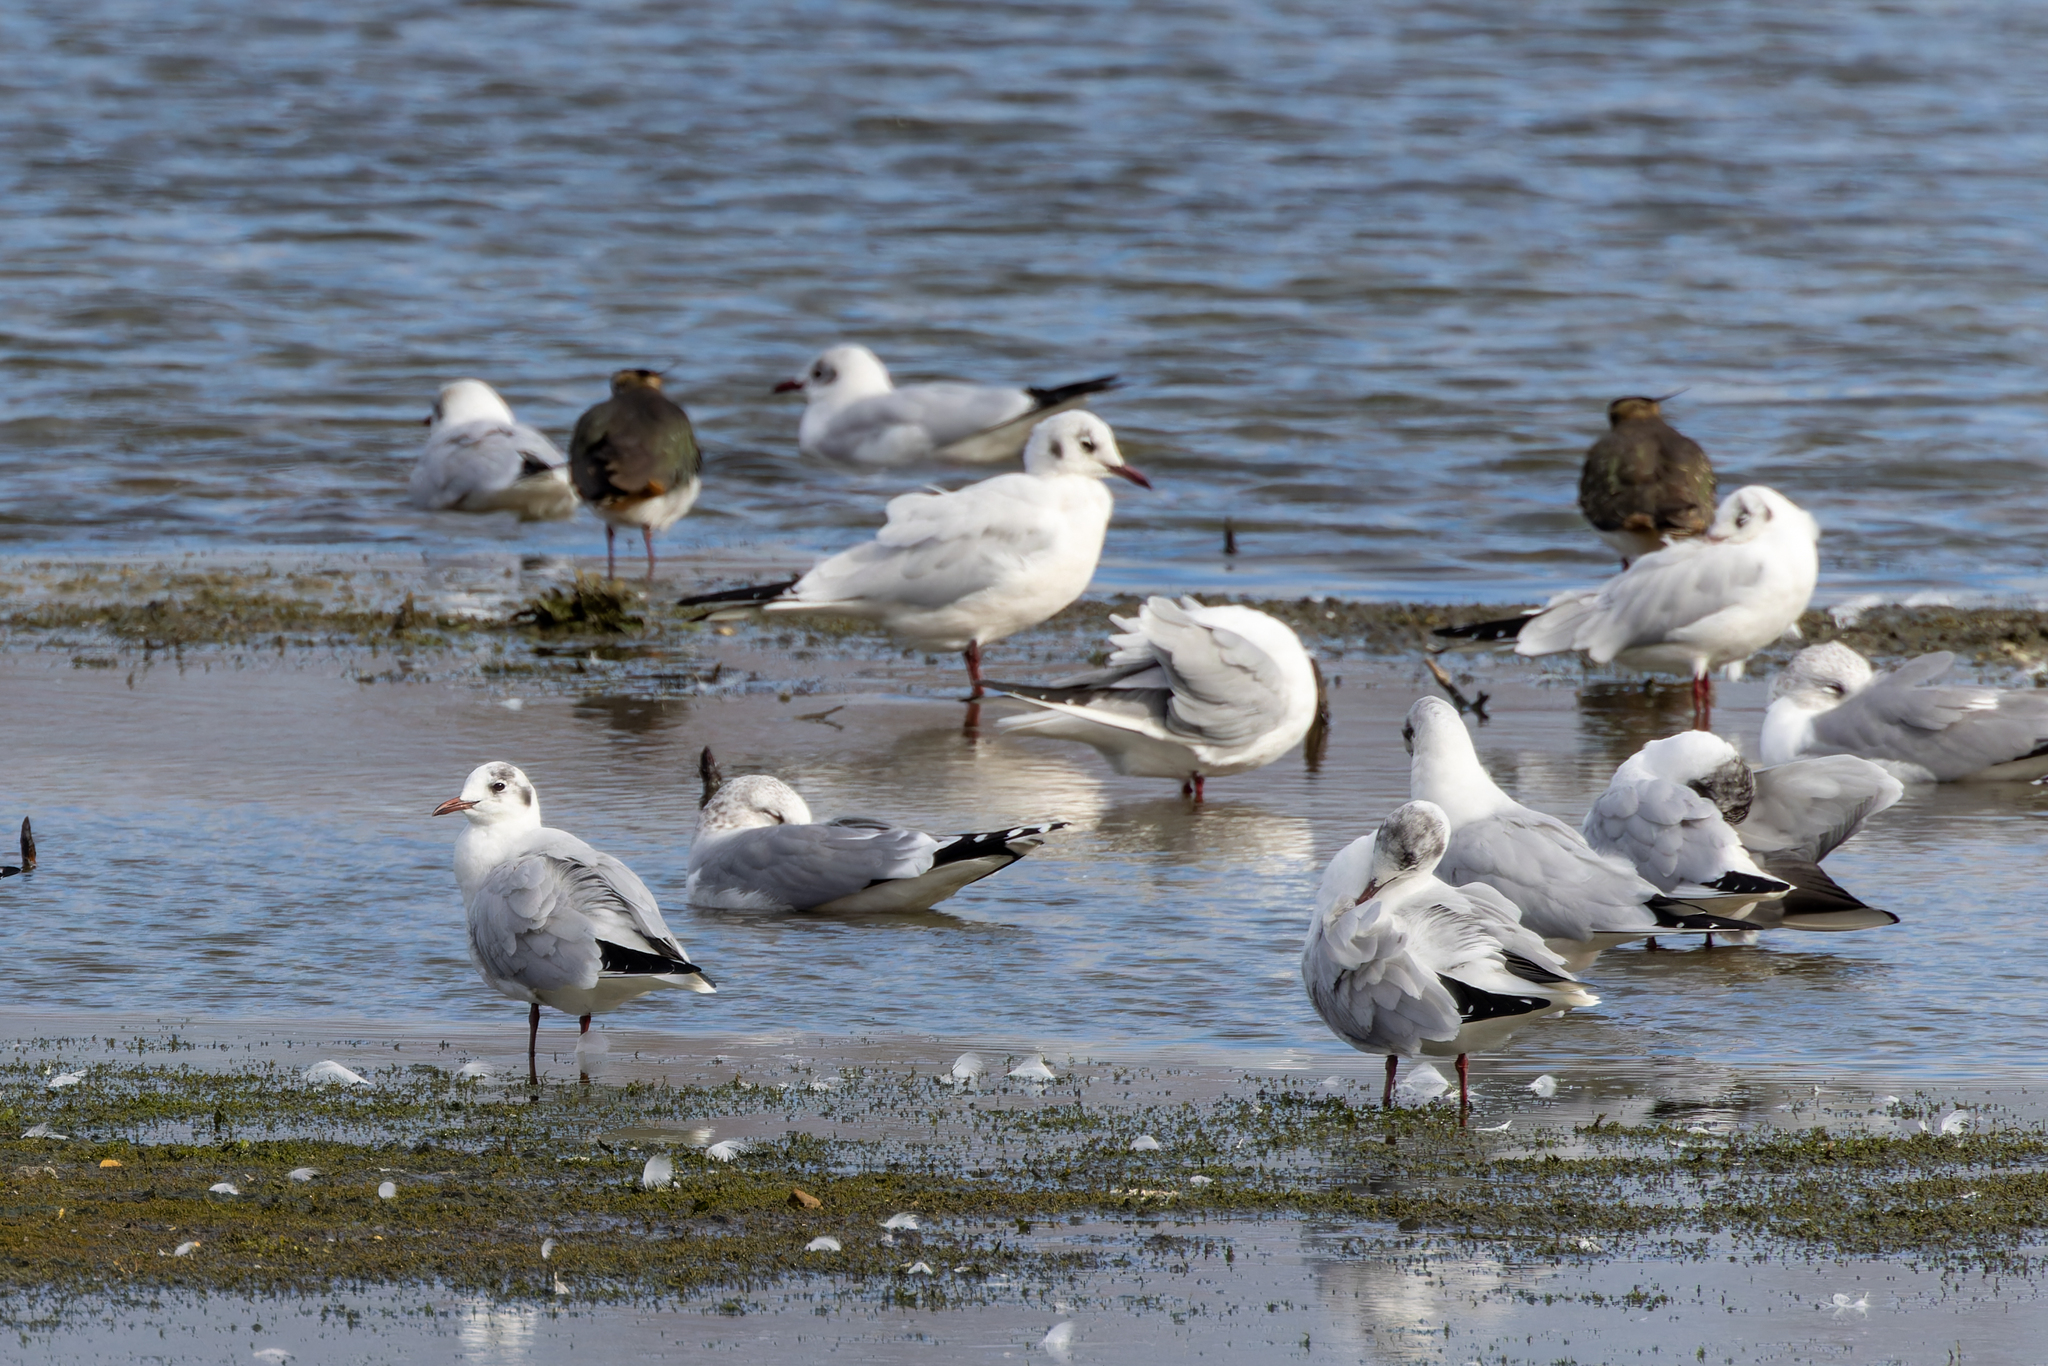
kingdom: Animalia
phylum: Chordata
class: Aves
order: Charadriiformes
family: Laridae
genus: Chroicocephalus
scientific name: Chroicocephalus ridibundus
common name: Black-headed gull
